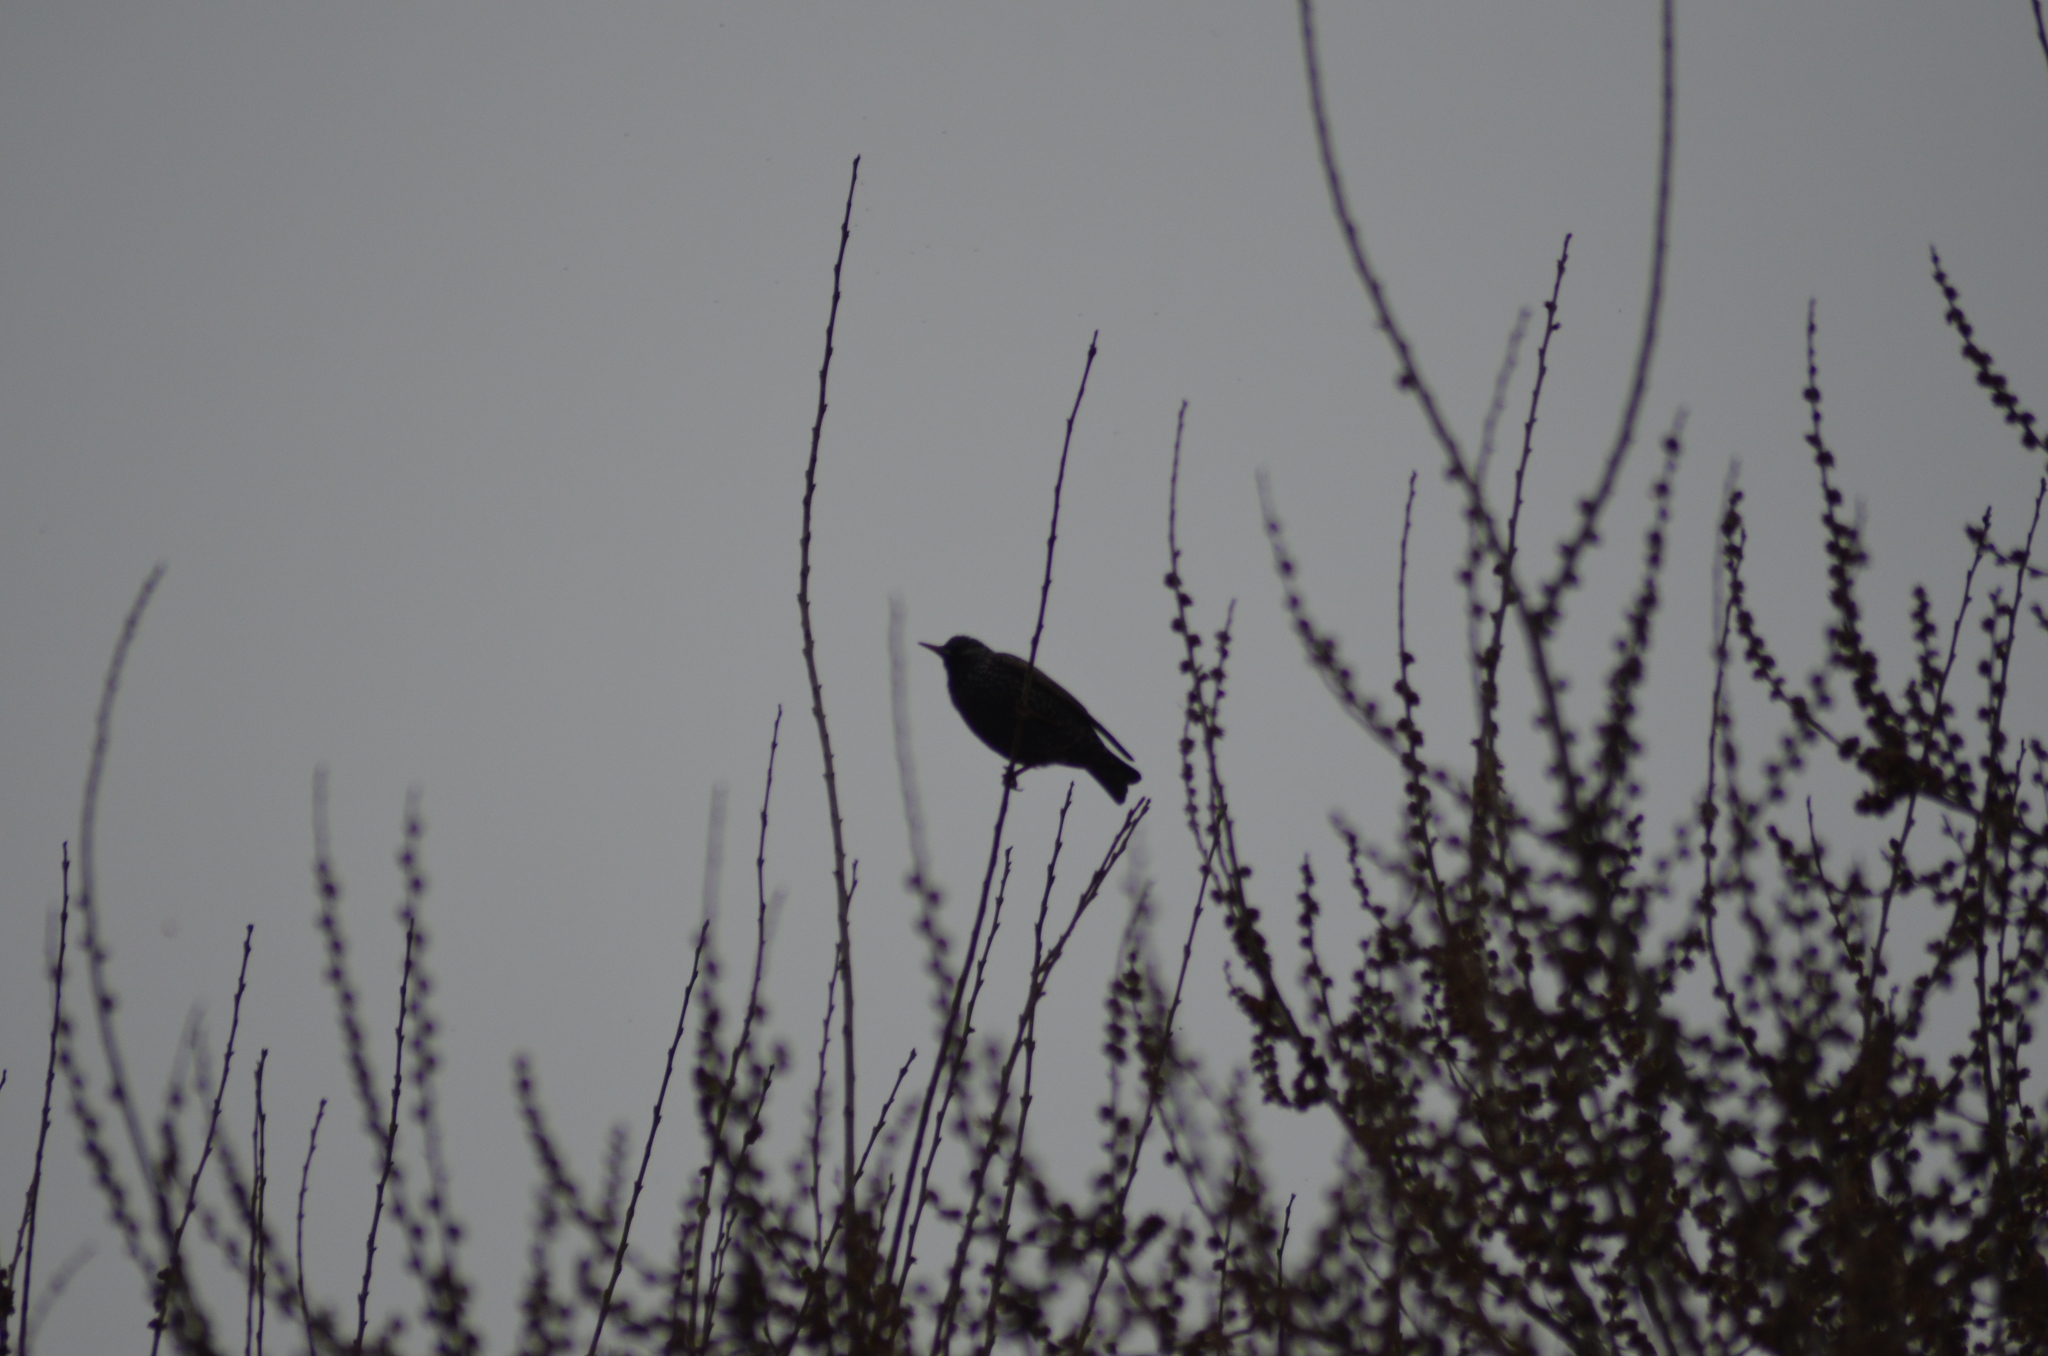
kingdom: Animalia
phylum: Chordata
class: Aves
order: Passeriformes
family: Sturnidae
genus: Sturnus
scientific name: Sturnus vulgaris
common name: Common starling
